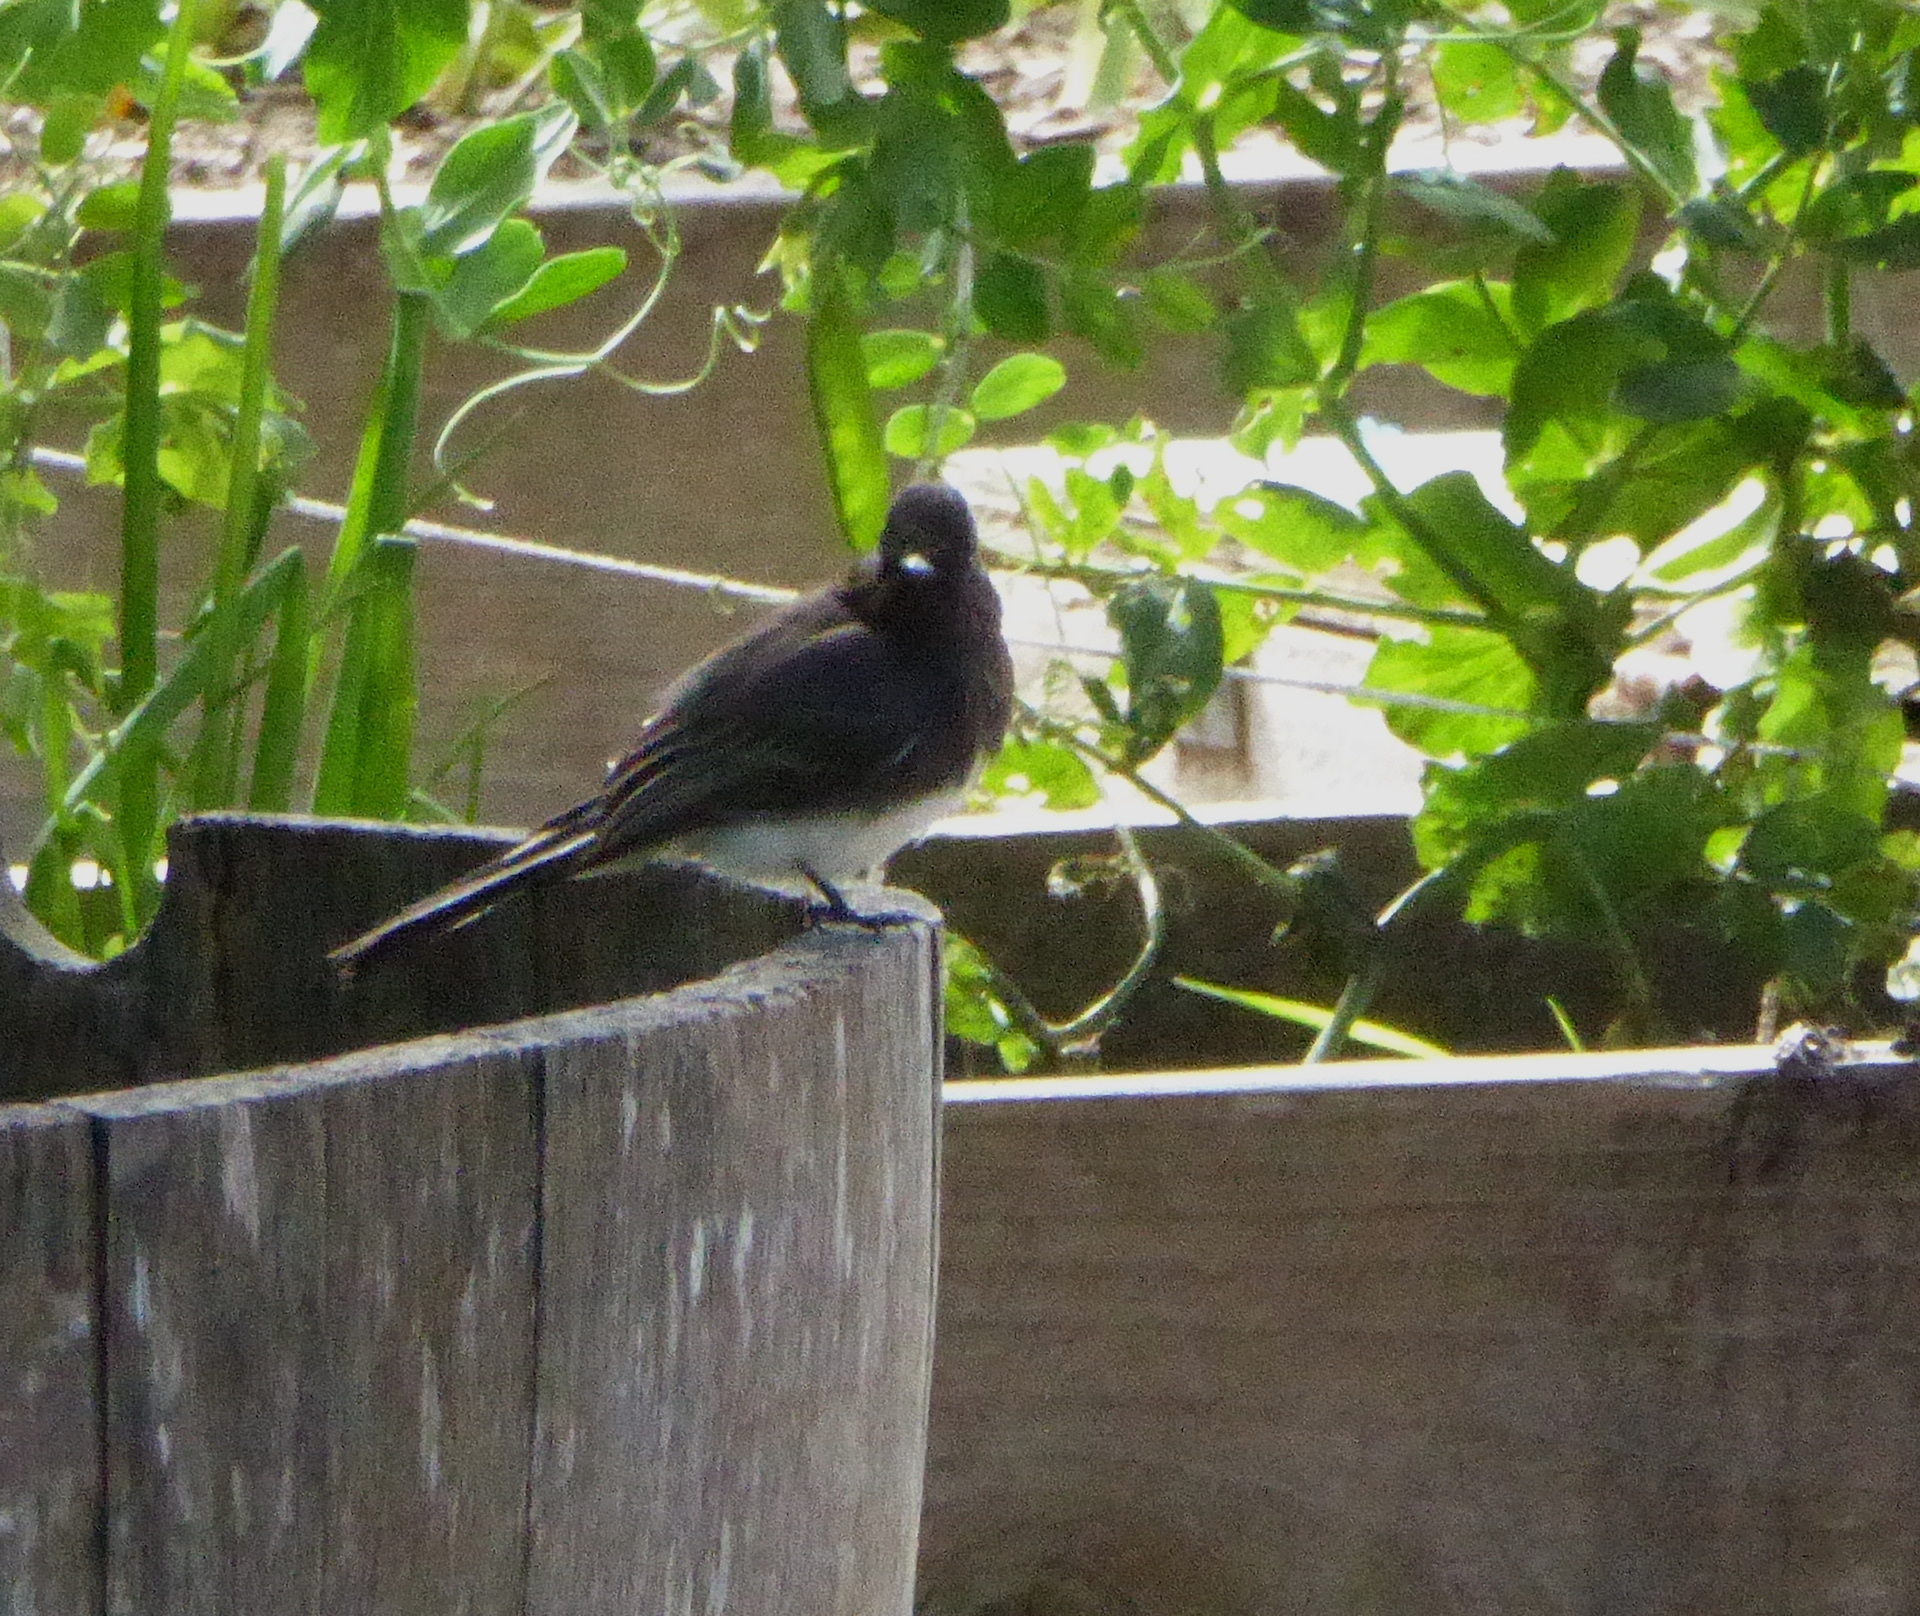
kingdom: Animalia
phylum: Chordata
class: Aves
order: Passeriformes
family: Tyrannidae
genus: Sayornis
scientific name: Sayornis nigricans
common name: Black phoebe
